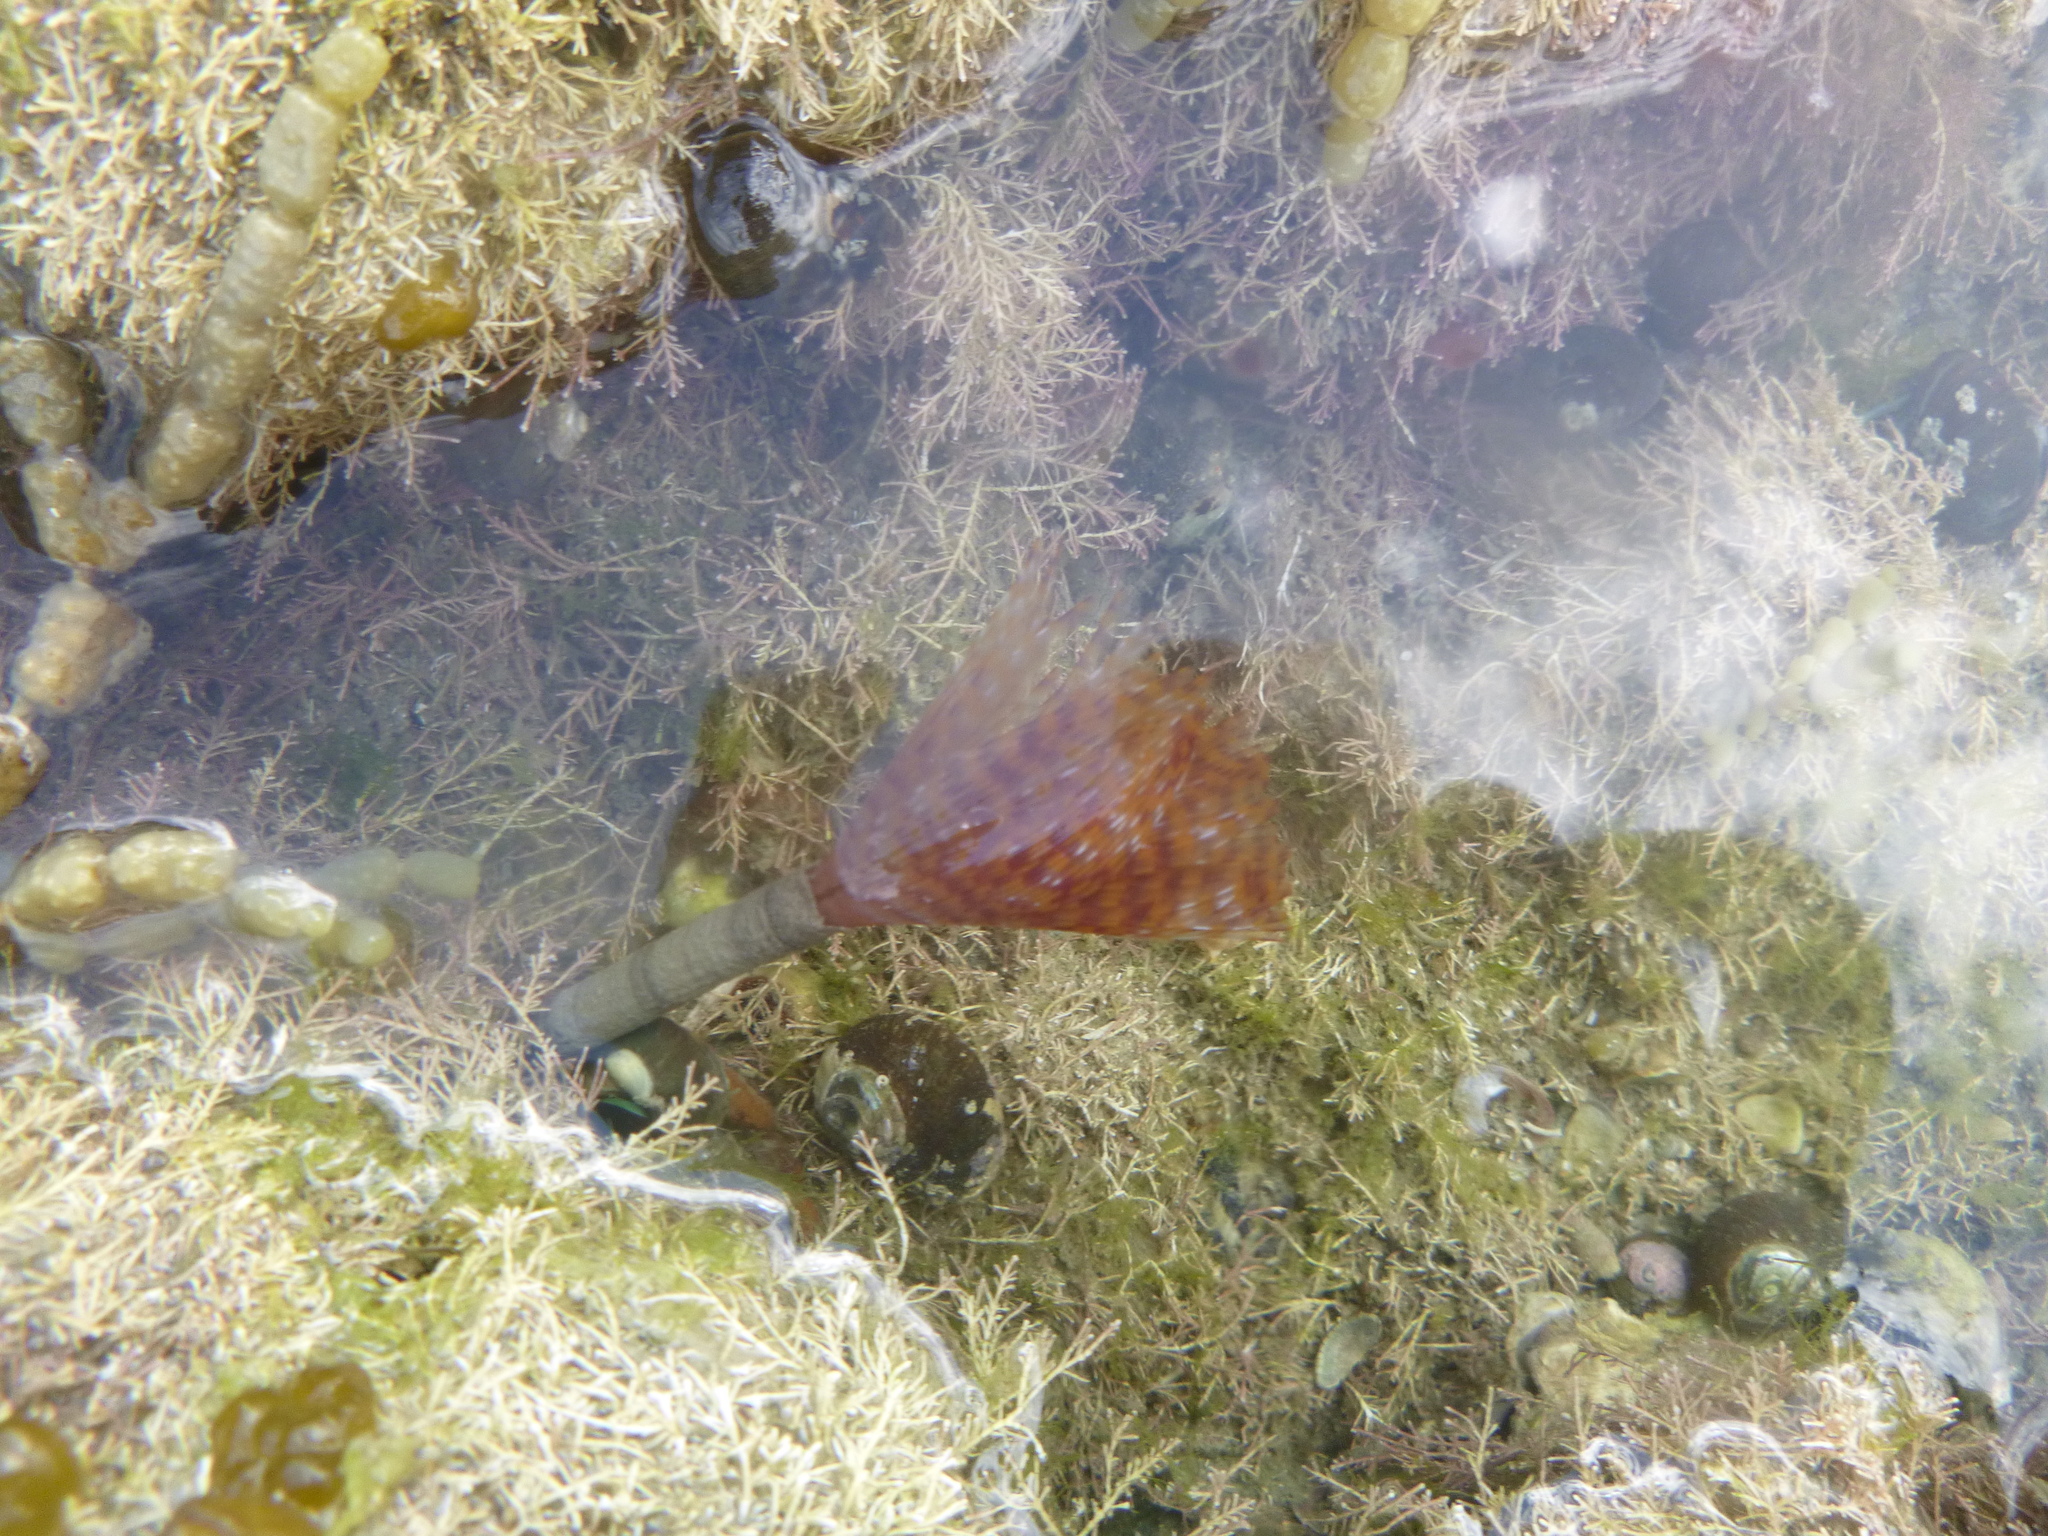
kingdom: Animalia
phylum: Annelida
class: Polychaeta
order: Sabellida
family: Sabellidae
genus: Sabella
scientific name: Sabella spallanzanii
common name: Feather duster worm
